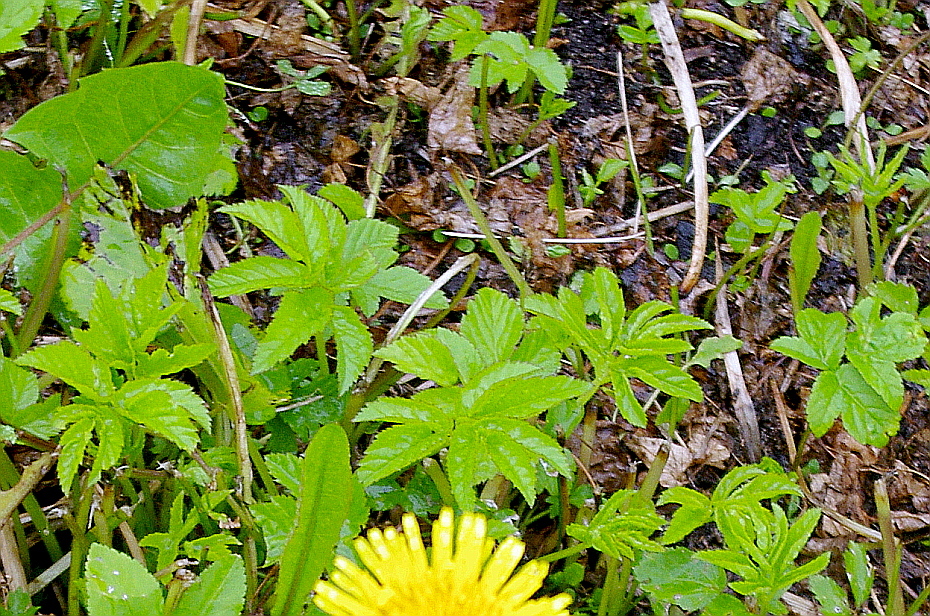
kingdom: Plantae
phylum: Tracheophyta
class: Magnoliopsida
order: Apiales
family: Apiaceae
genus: Aegopodium
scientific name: Aegopodium podagraria
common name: Ground-elder
